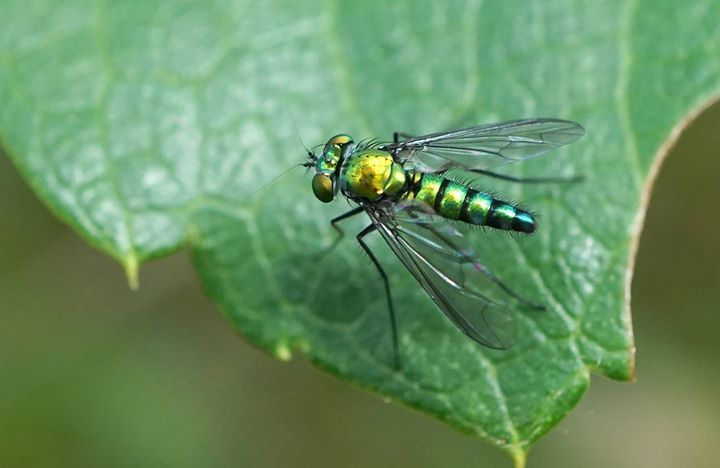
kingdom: Animalia
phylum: Arthropoda
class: Insecta
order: Diptera
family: Dolichopodidae
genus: Condylostylus
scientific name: Condylostylus longicornis
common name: Long-legged fly
